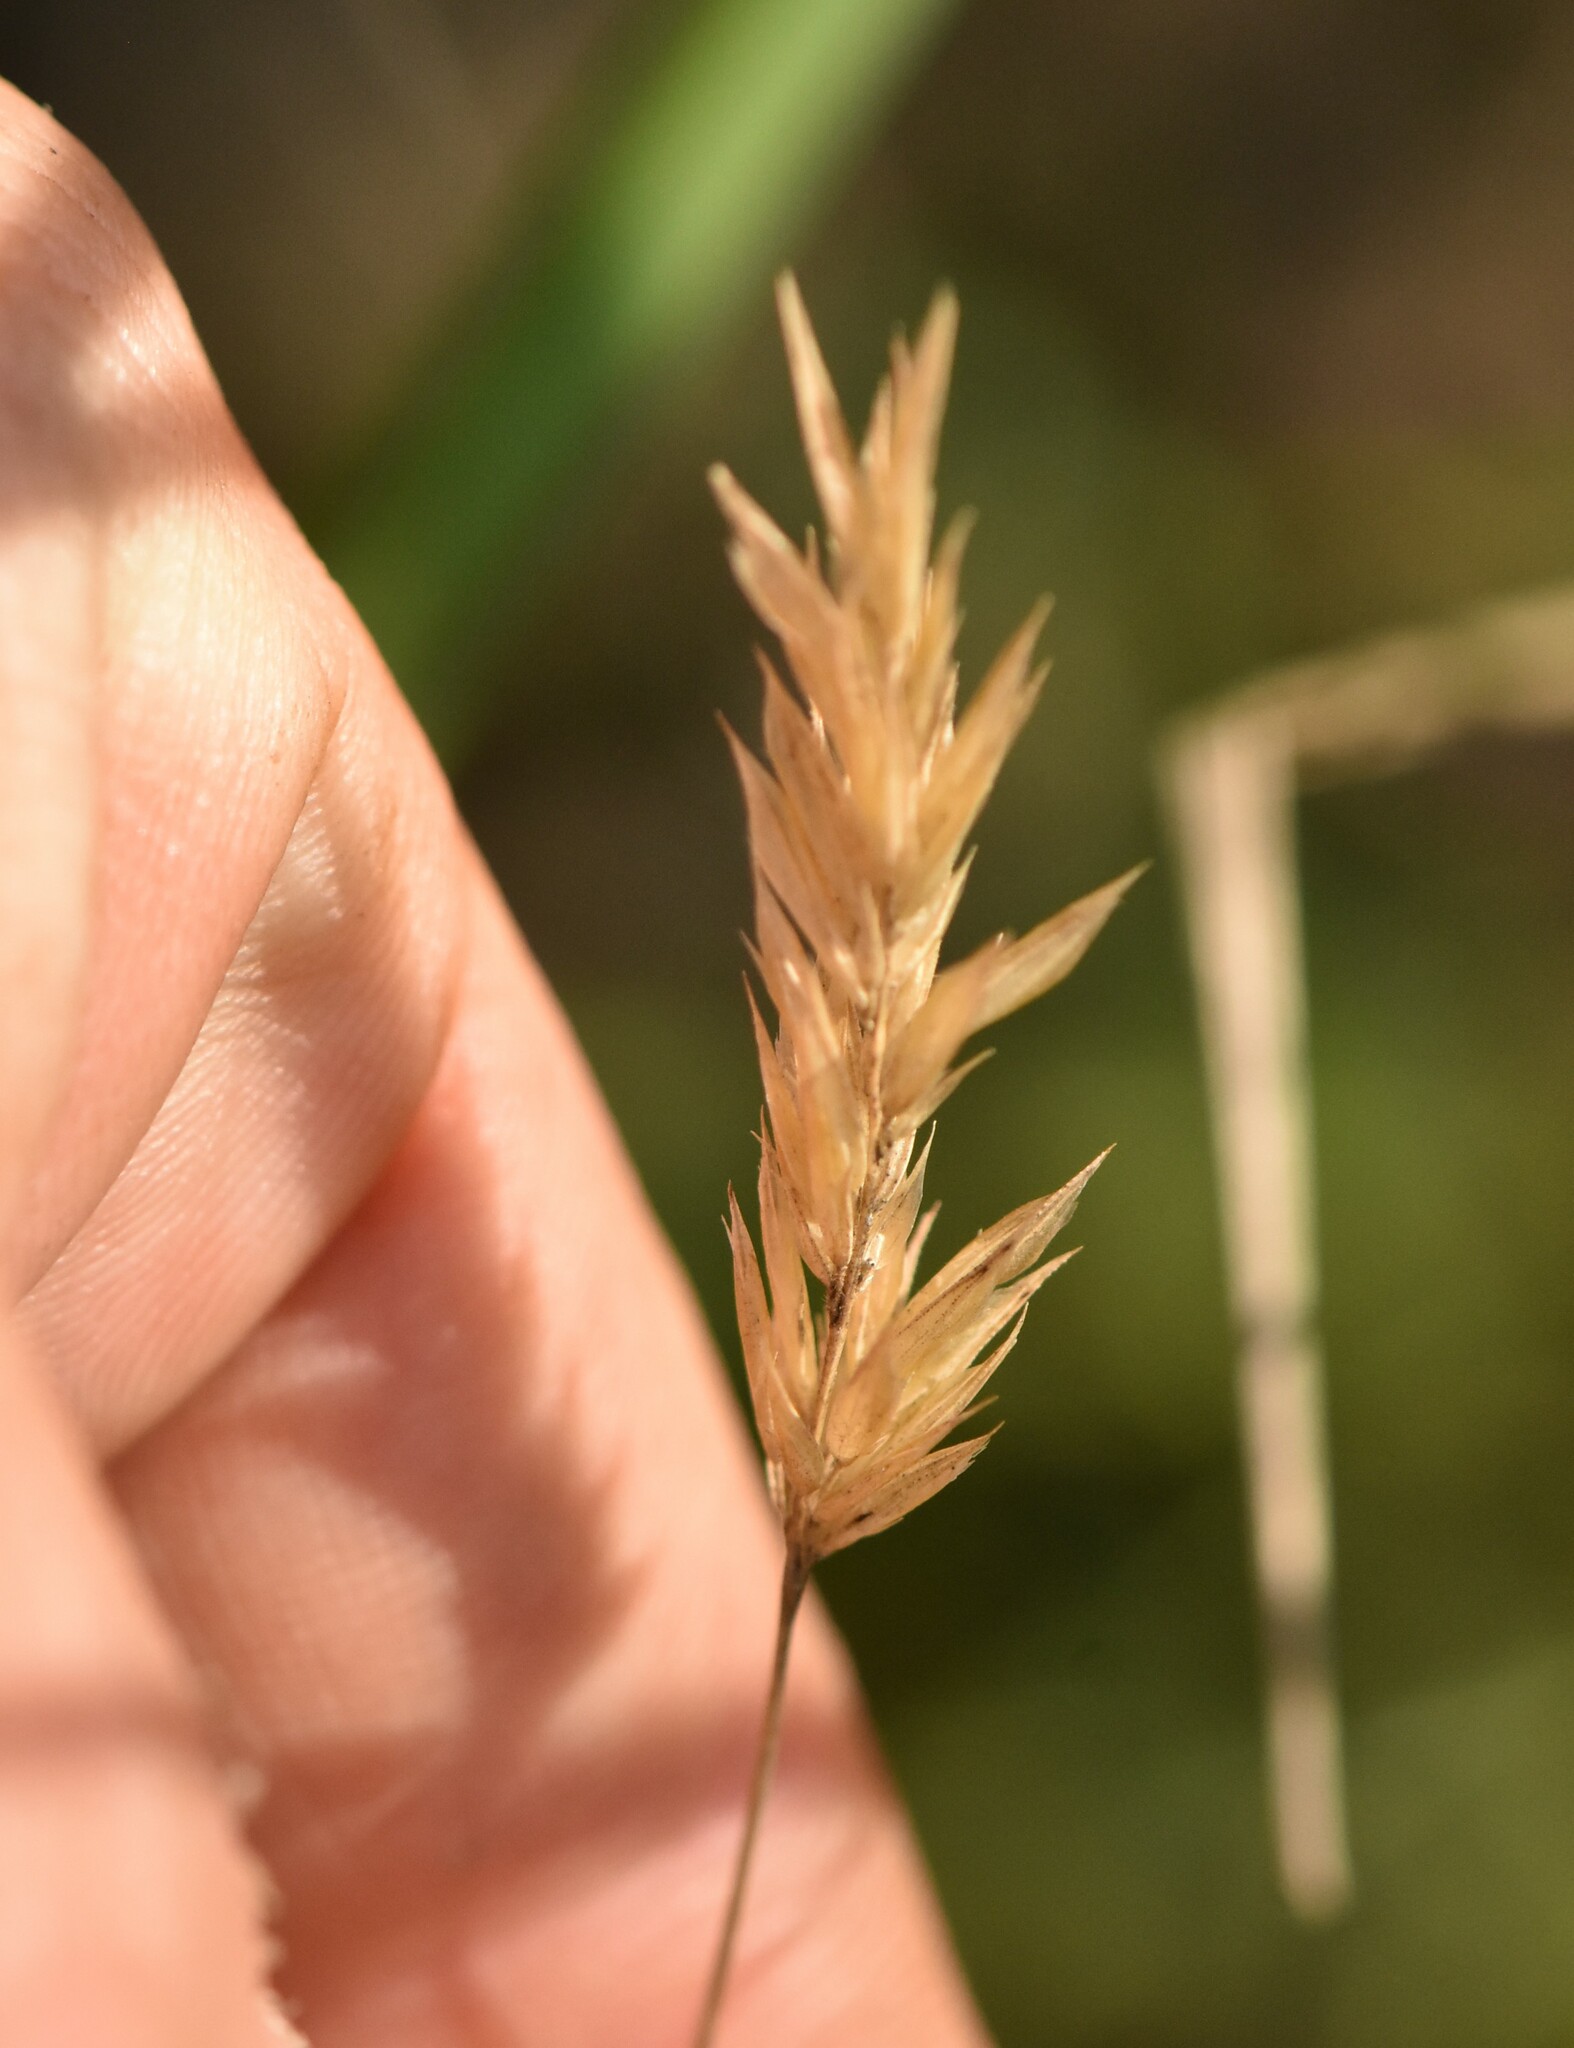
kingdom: Plantae
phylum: Tracheophyta
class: Liliopsida
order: Poales
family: Poaceae
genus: Anthoxanthum
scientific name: Anthoxanthum odoratum
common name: Sweet vernalgrass
